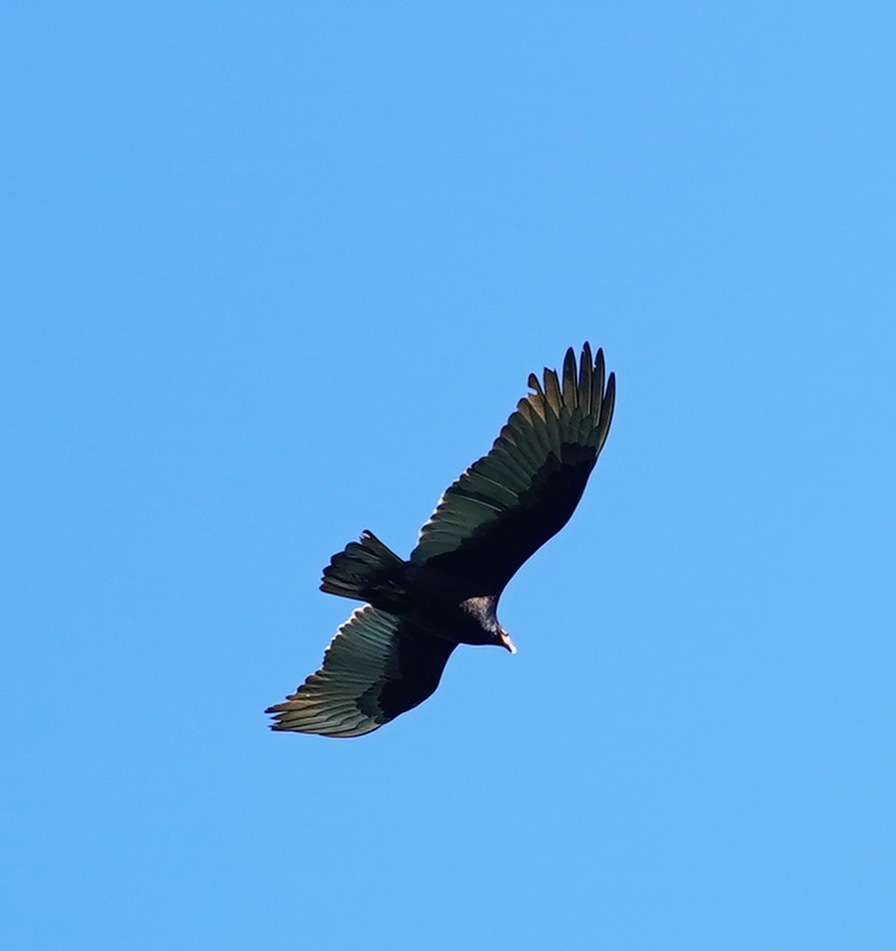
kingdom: Animalia
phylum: Chordata
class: Aves
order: Accipitriformes
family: Cathartidae
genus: Cathartes
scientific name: Cathartes aura
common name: Turkey vulture
